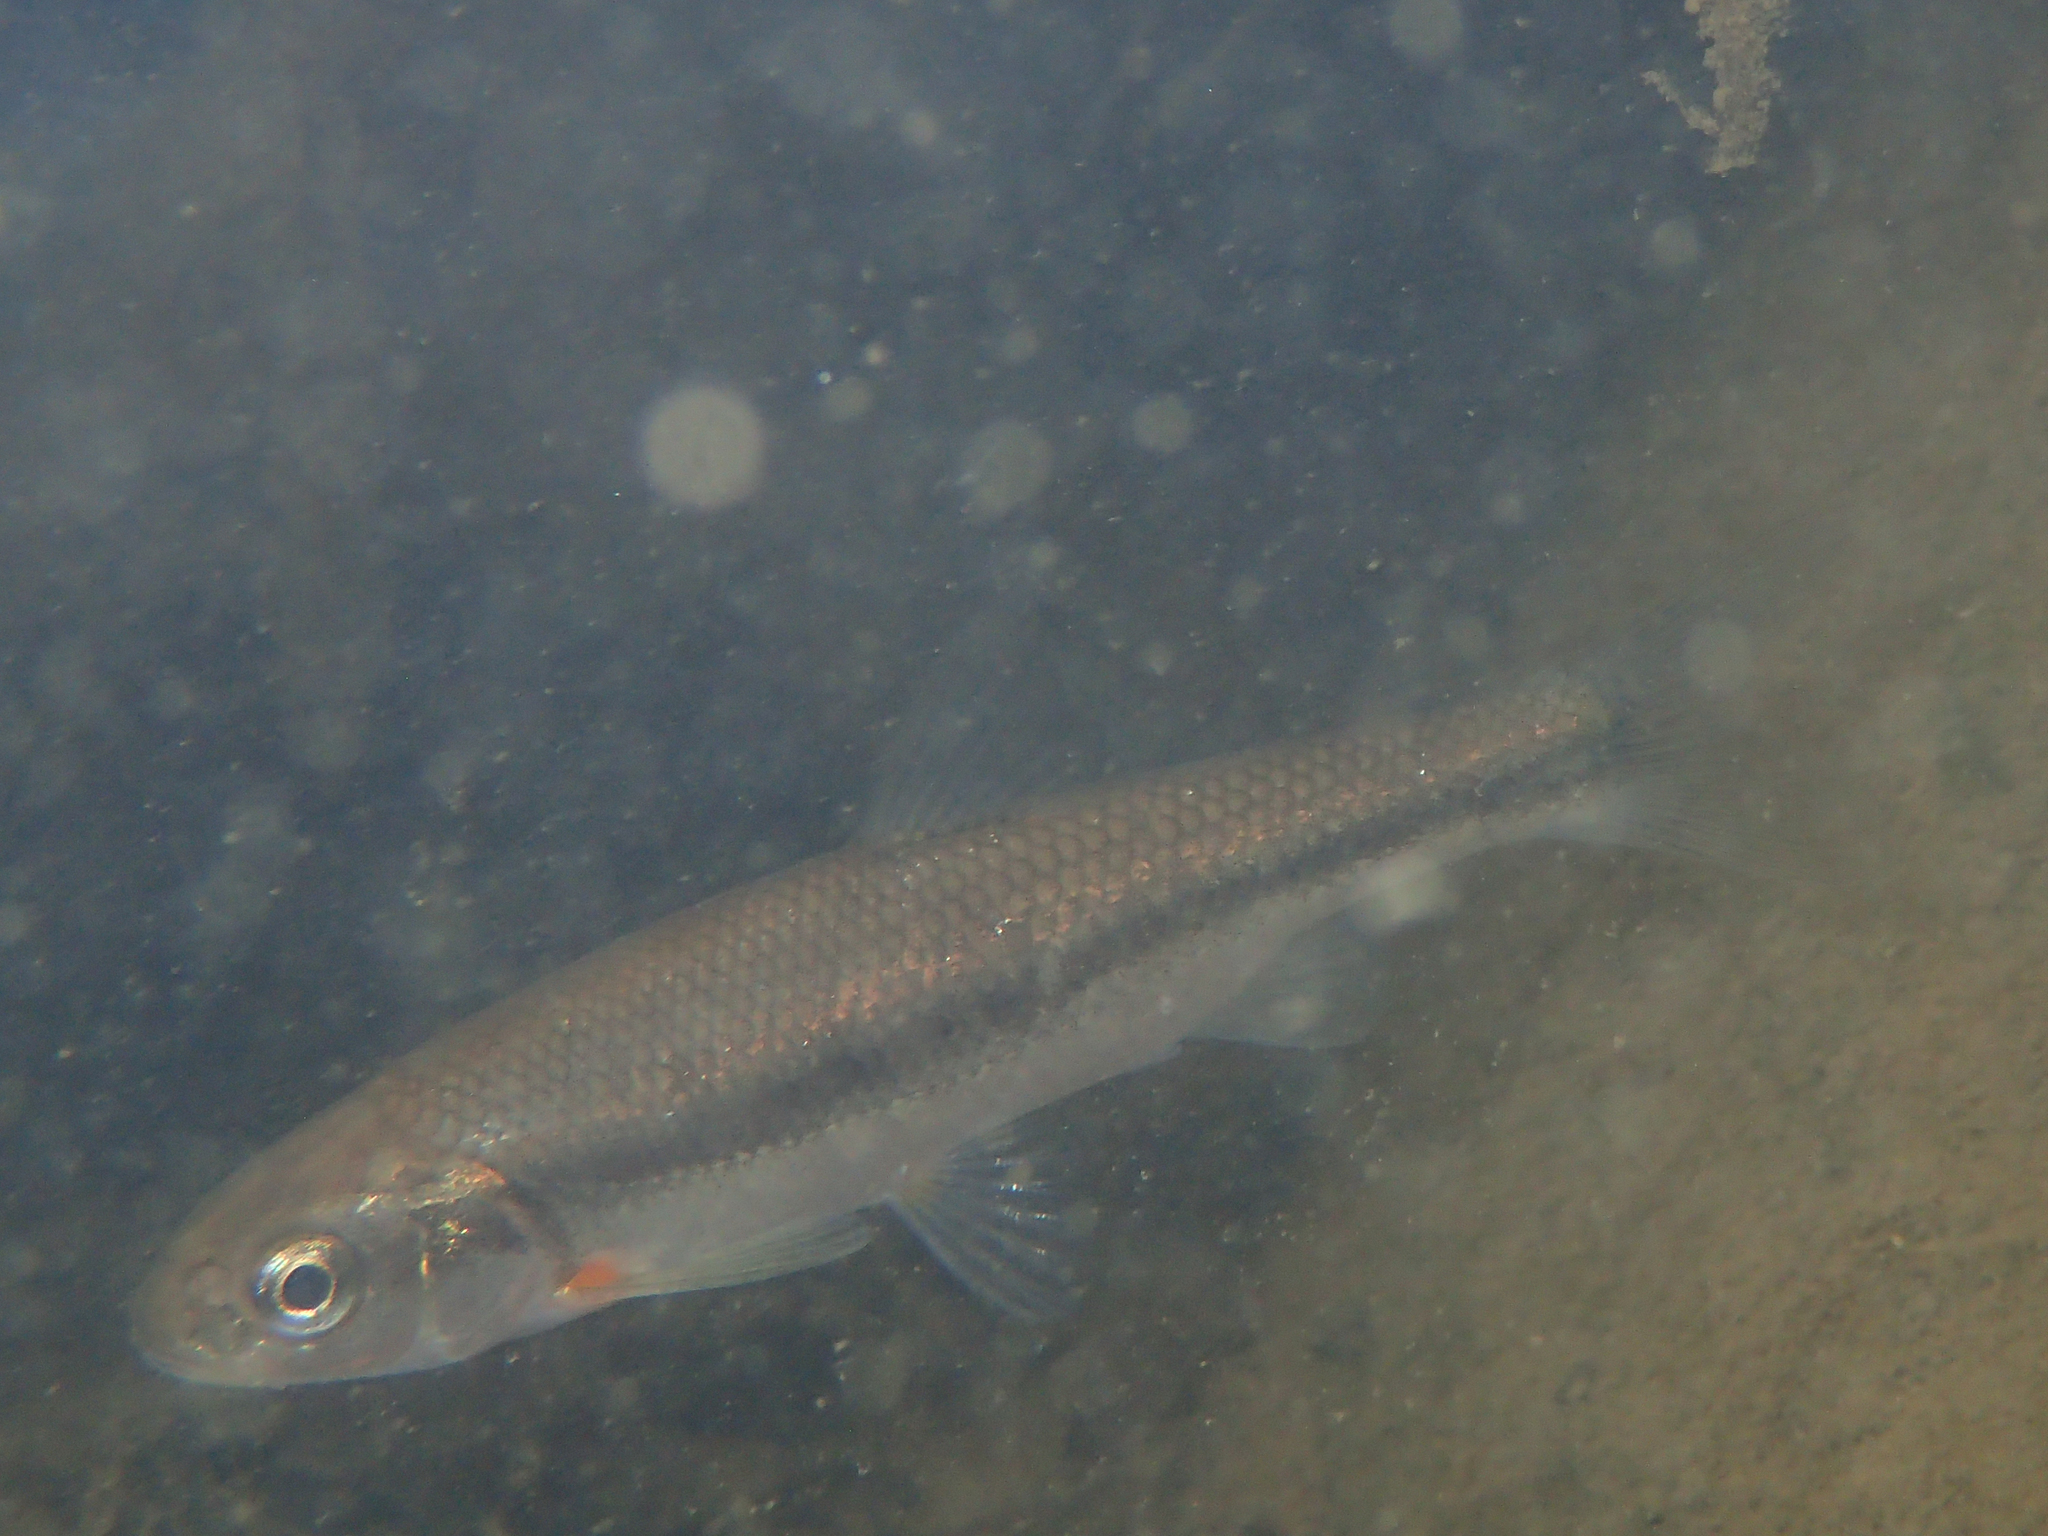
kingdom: Animalia
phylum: Chordata
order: Cypriniformes
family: Cyprinidae
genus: Telestes
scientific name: Telestes muticellus
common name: Italian riffle dace
